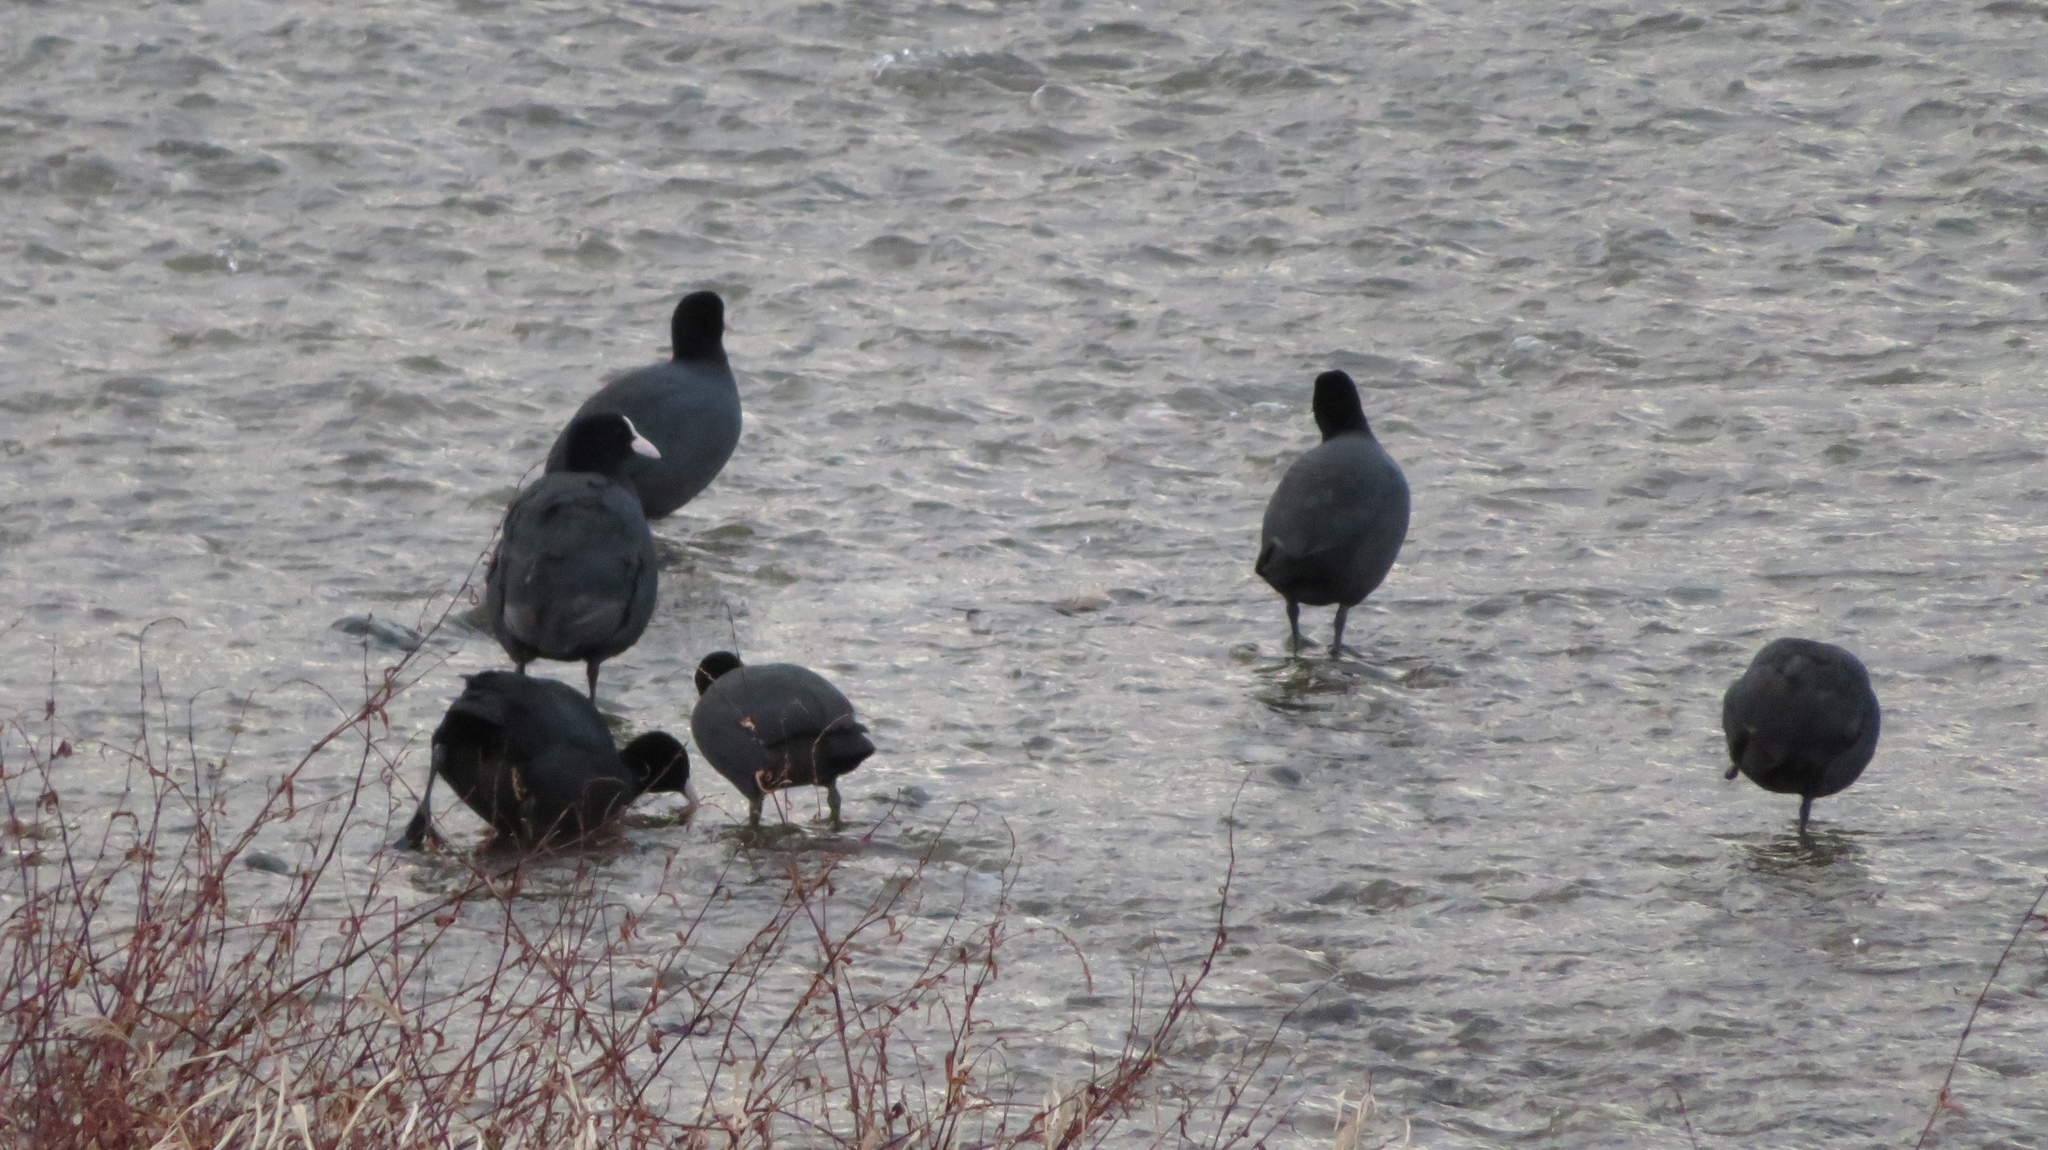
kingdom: Animalia
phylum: Chordata
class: Aves
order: Gruiformes
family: Rallidae
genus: Fulica
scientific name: Fulica atra
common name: Eurasian coot
